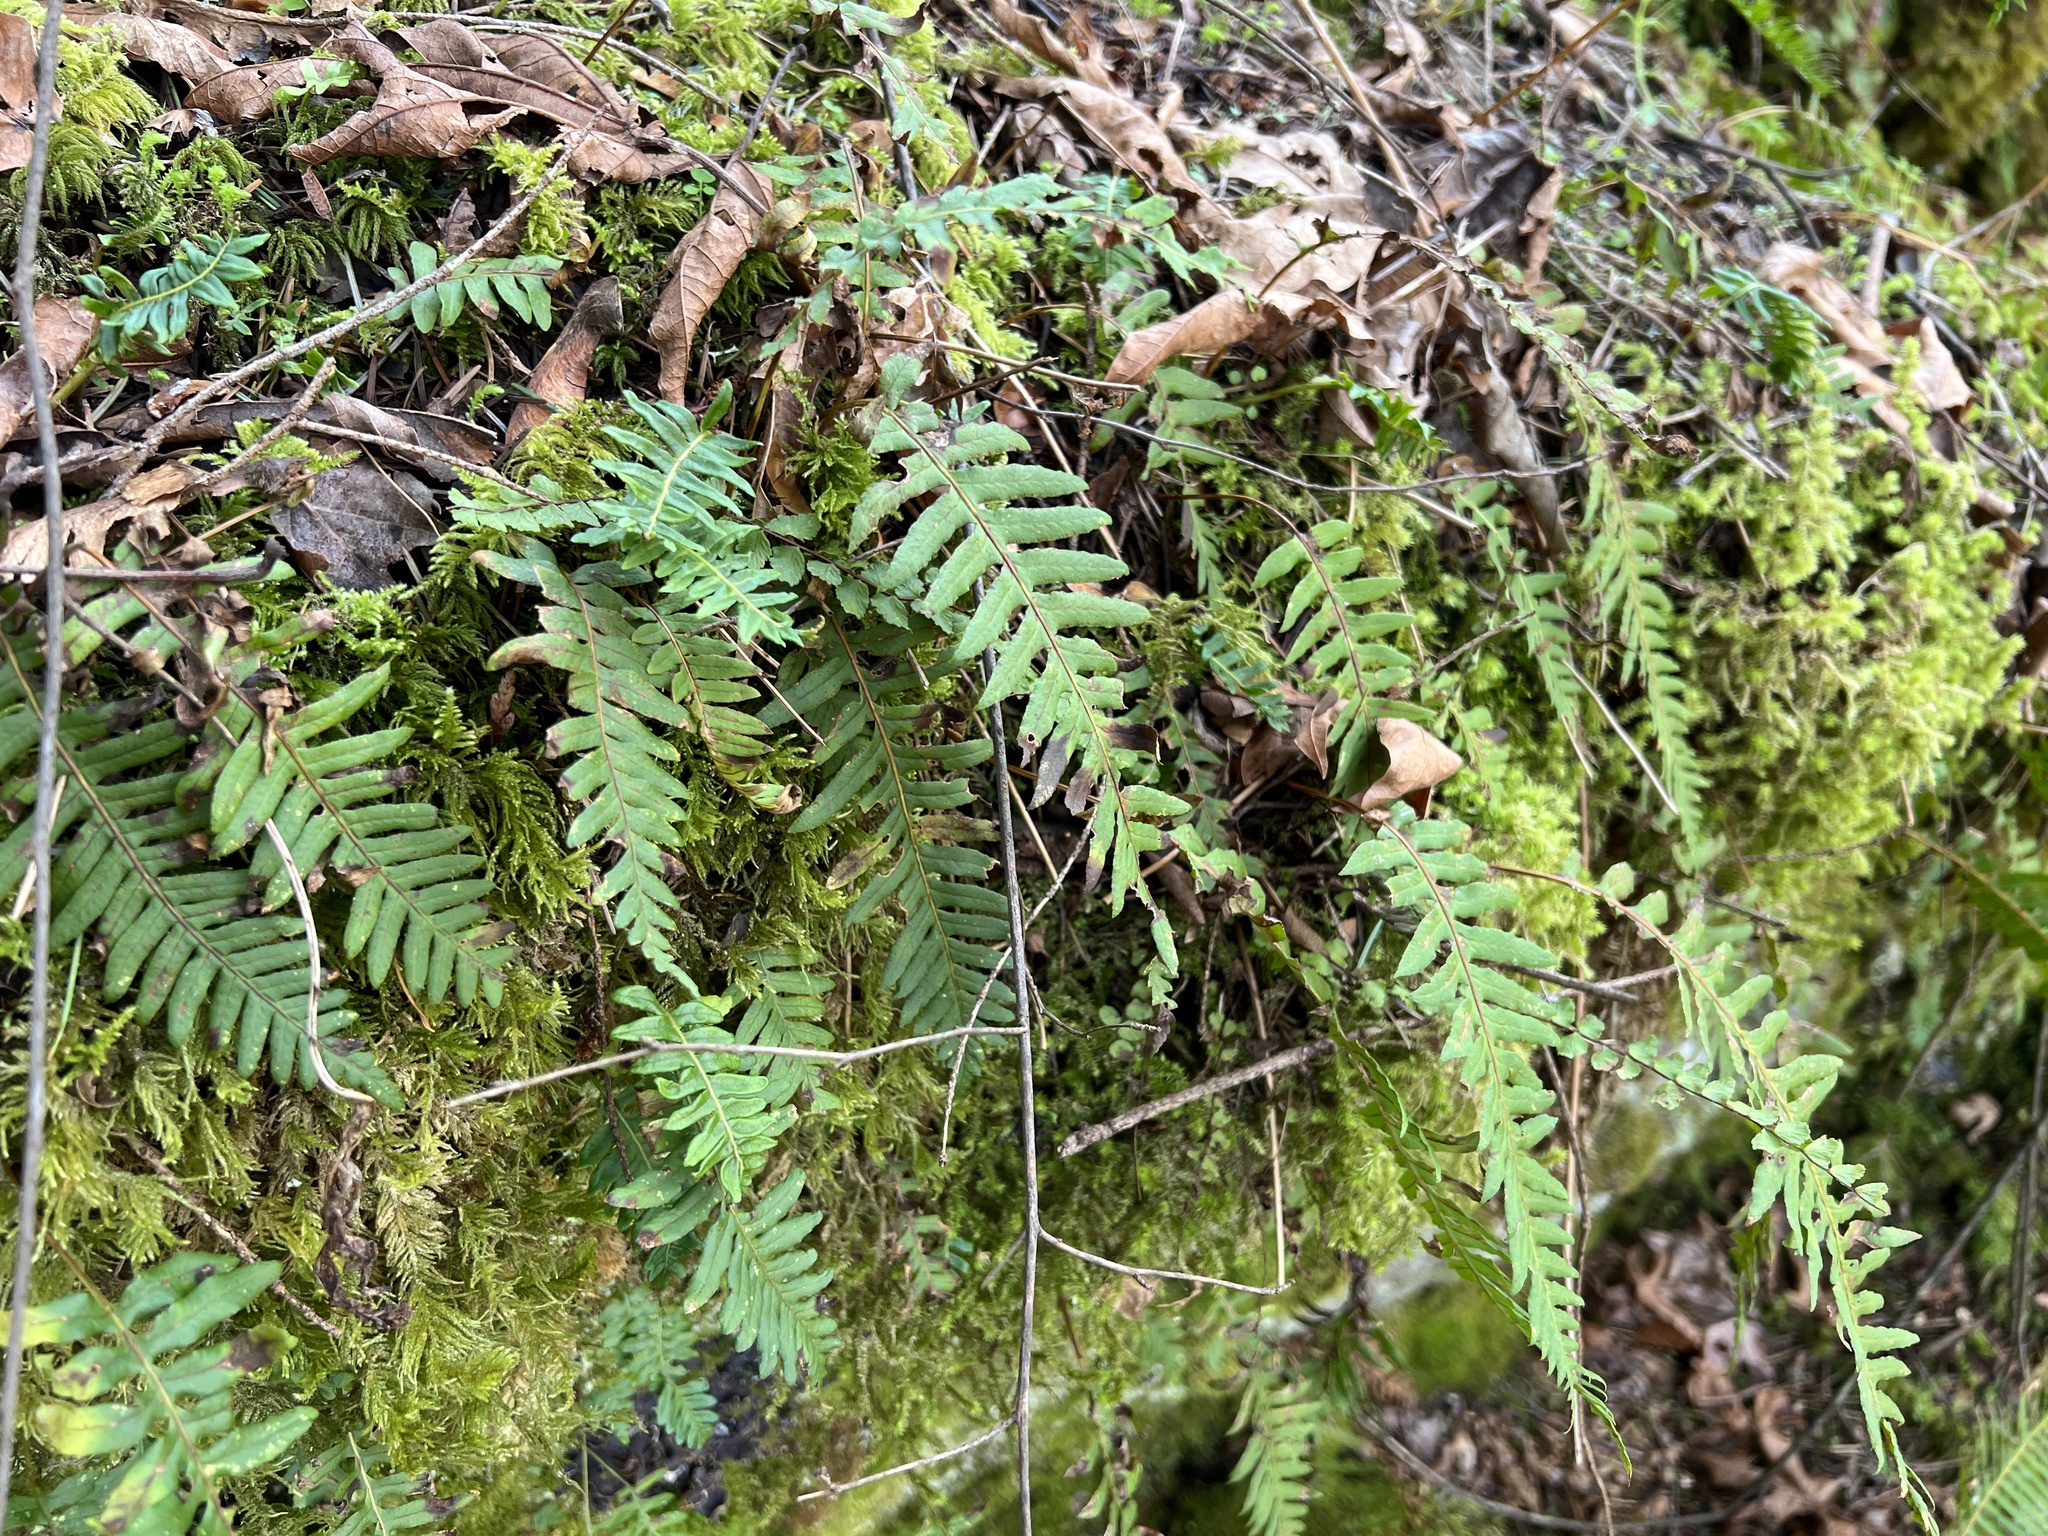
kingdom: Plantae
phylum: Tracheophyta
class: Polypodiopsida
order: Polypodiales
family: Polypodiaceae
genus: Polypodium
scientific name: Polypodium glycyrrhiza
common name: Licorice fern
